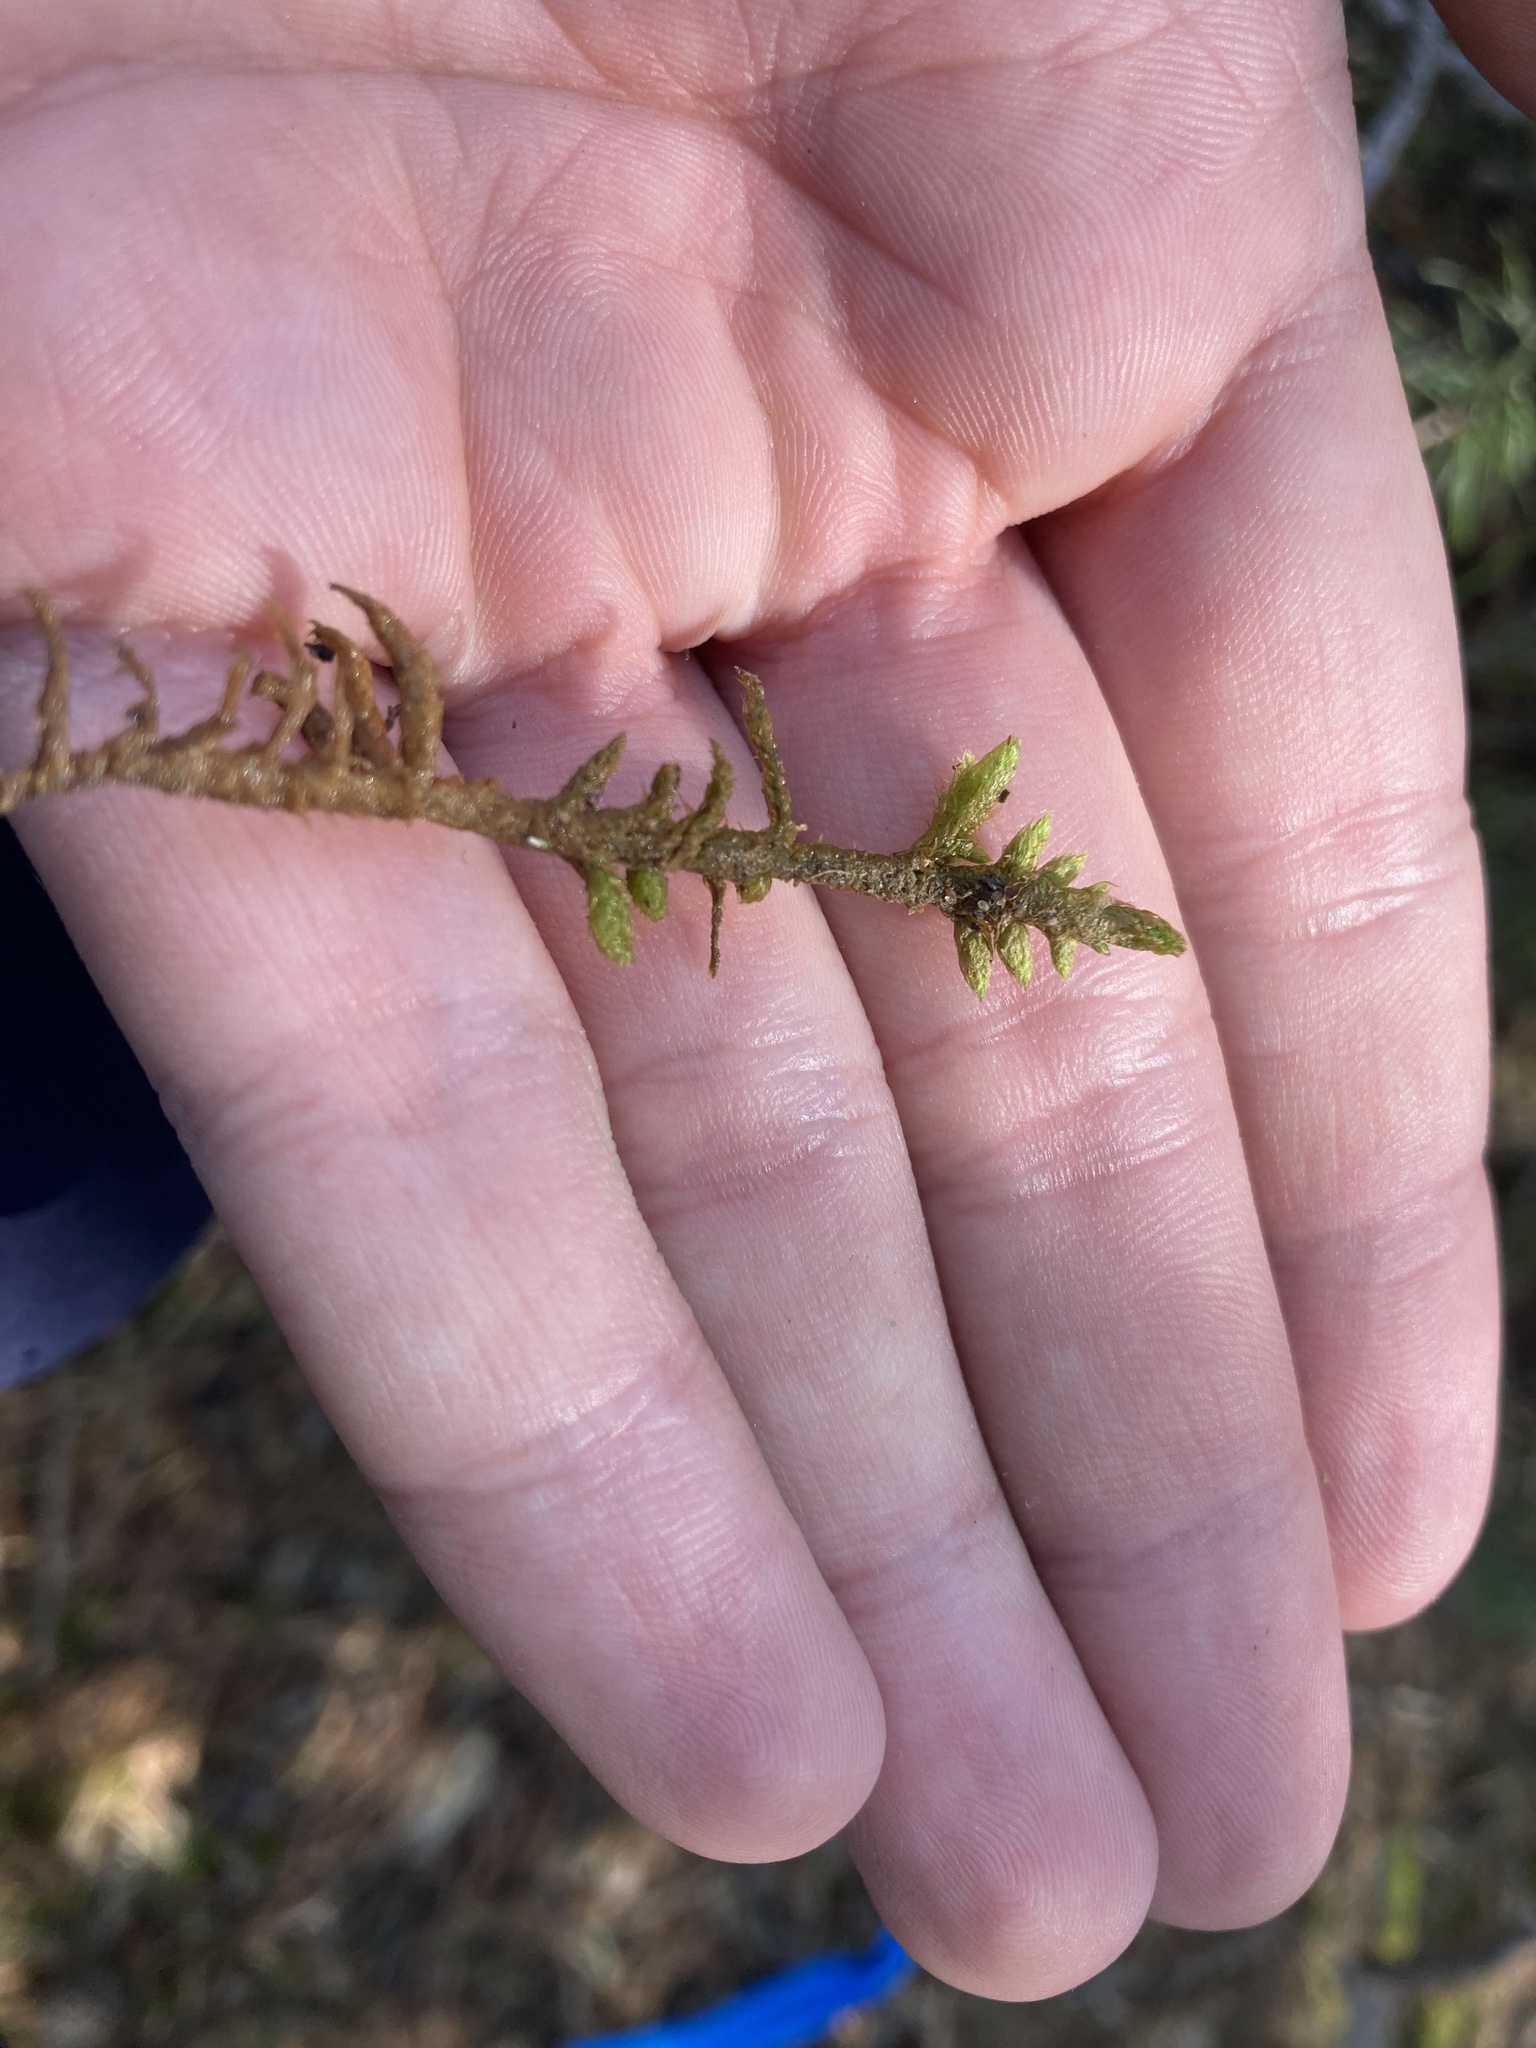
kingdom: Plantae
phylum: Bryophyta
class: Bryopsida
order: Hypnales
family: Rhytidiaceae
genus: Rhytidium
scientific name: Rhytidium rugosum
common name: Wrinkle-leaved moss
